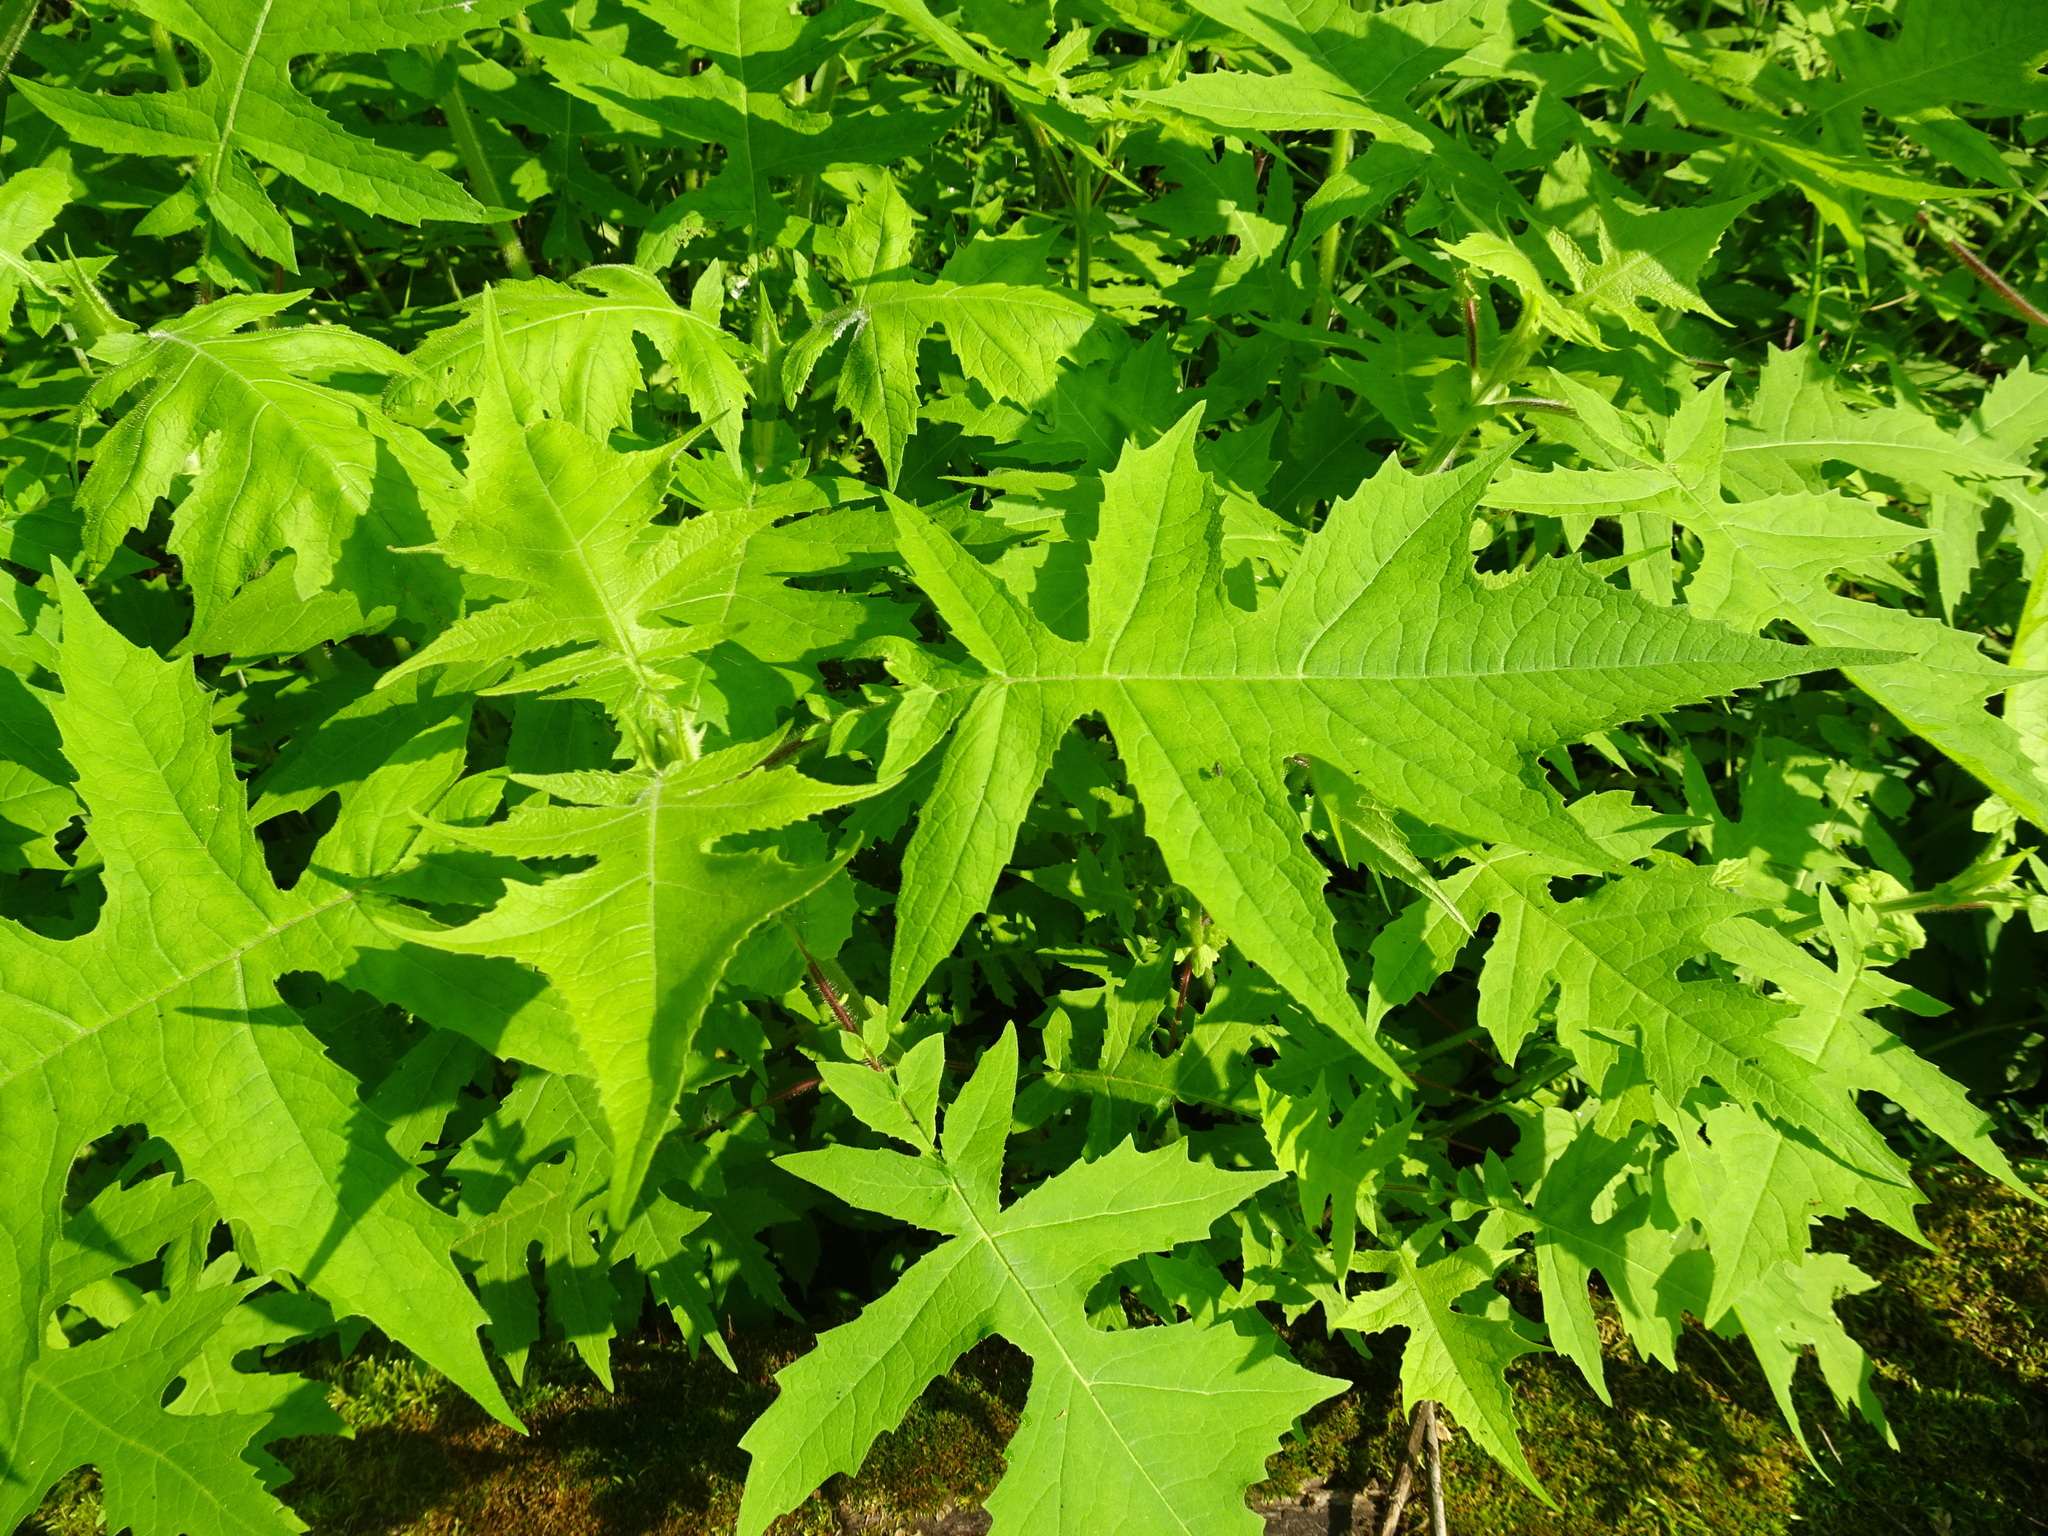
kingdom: Plantae
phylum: Tracheophyta
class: Magnoliopsida
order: Asterales
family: Asteraceae
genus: Polymnia
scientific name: Polymnia canadensis
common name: Pale-flowered leafcup
